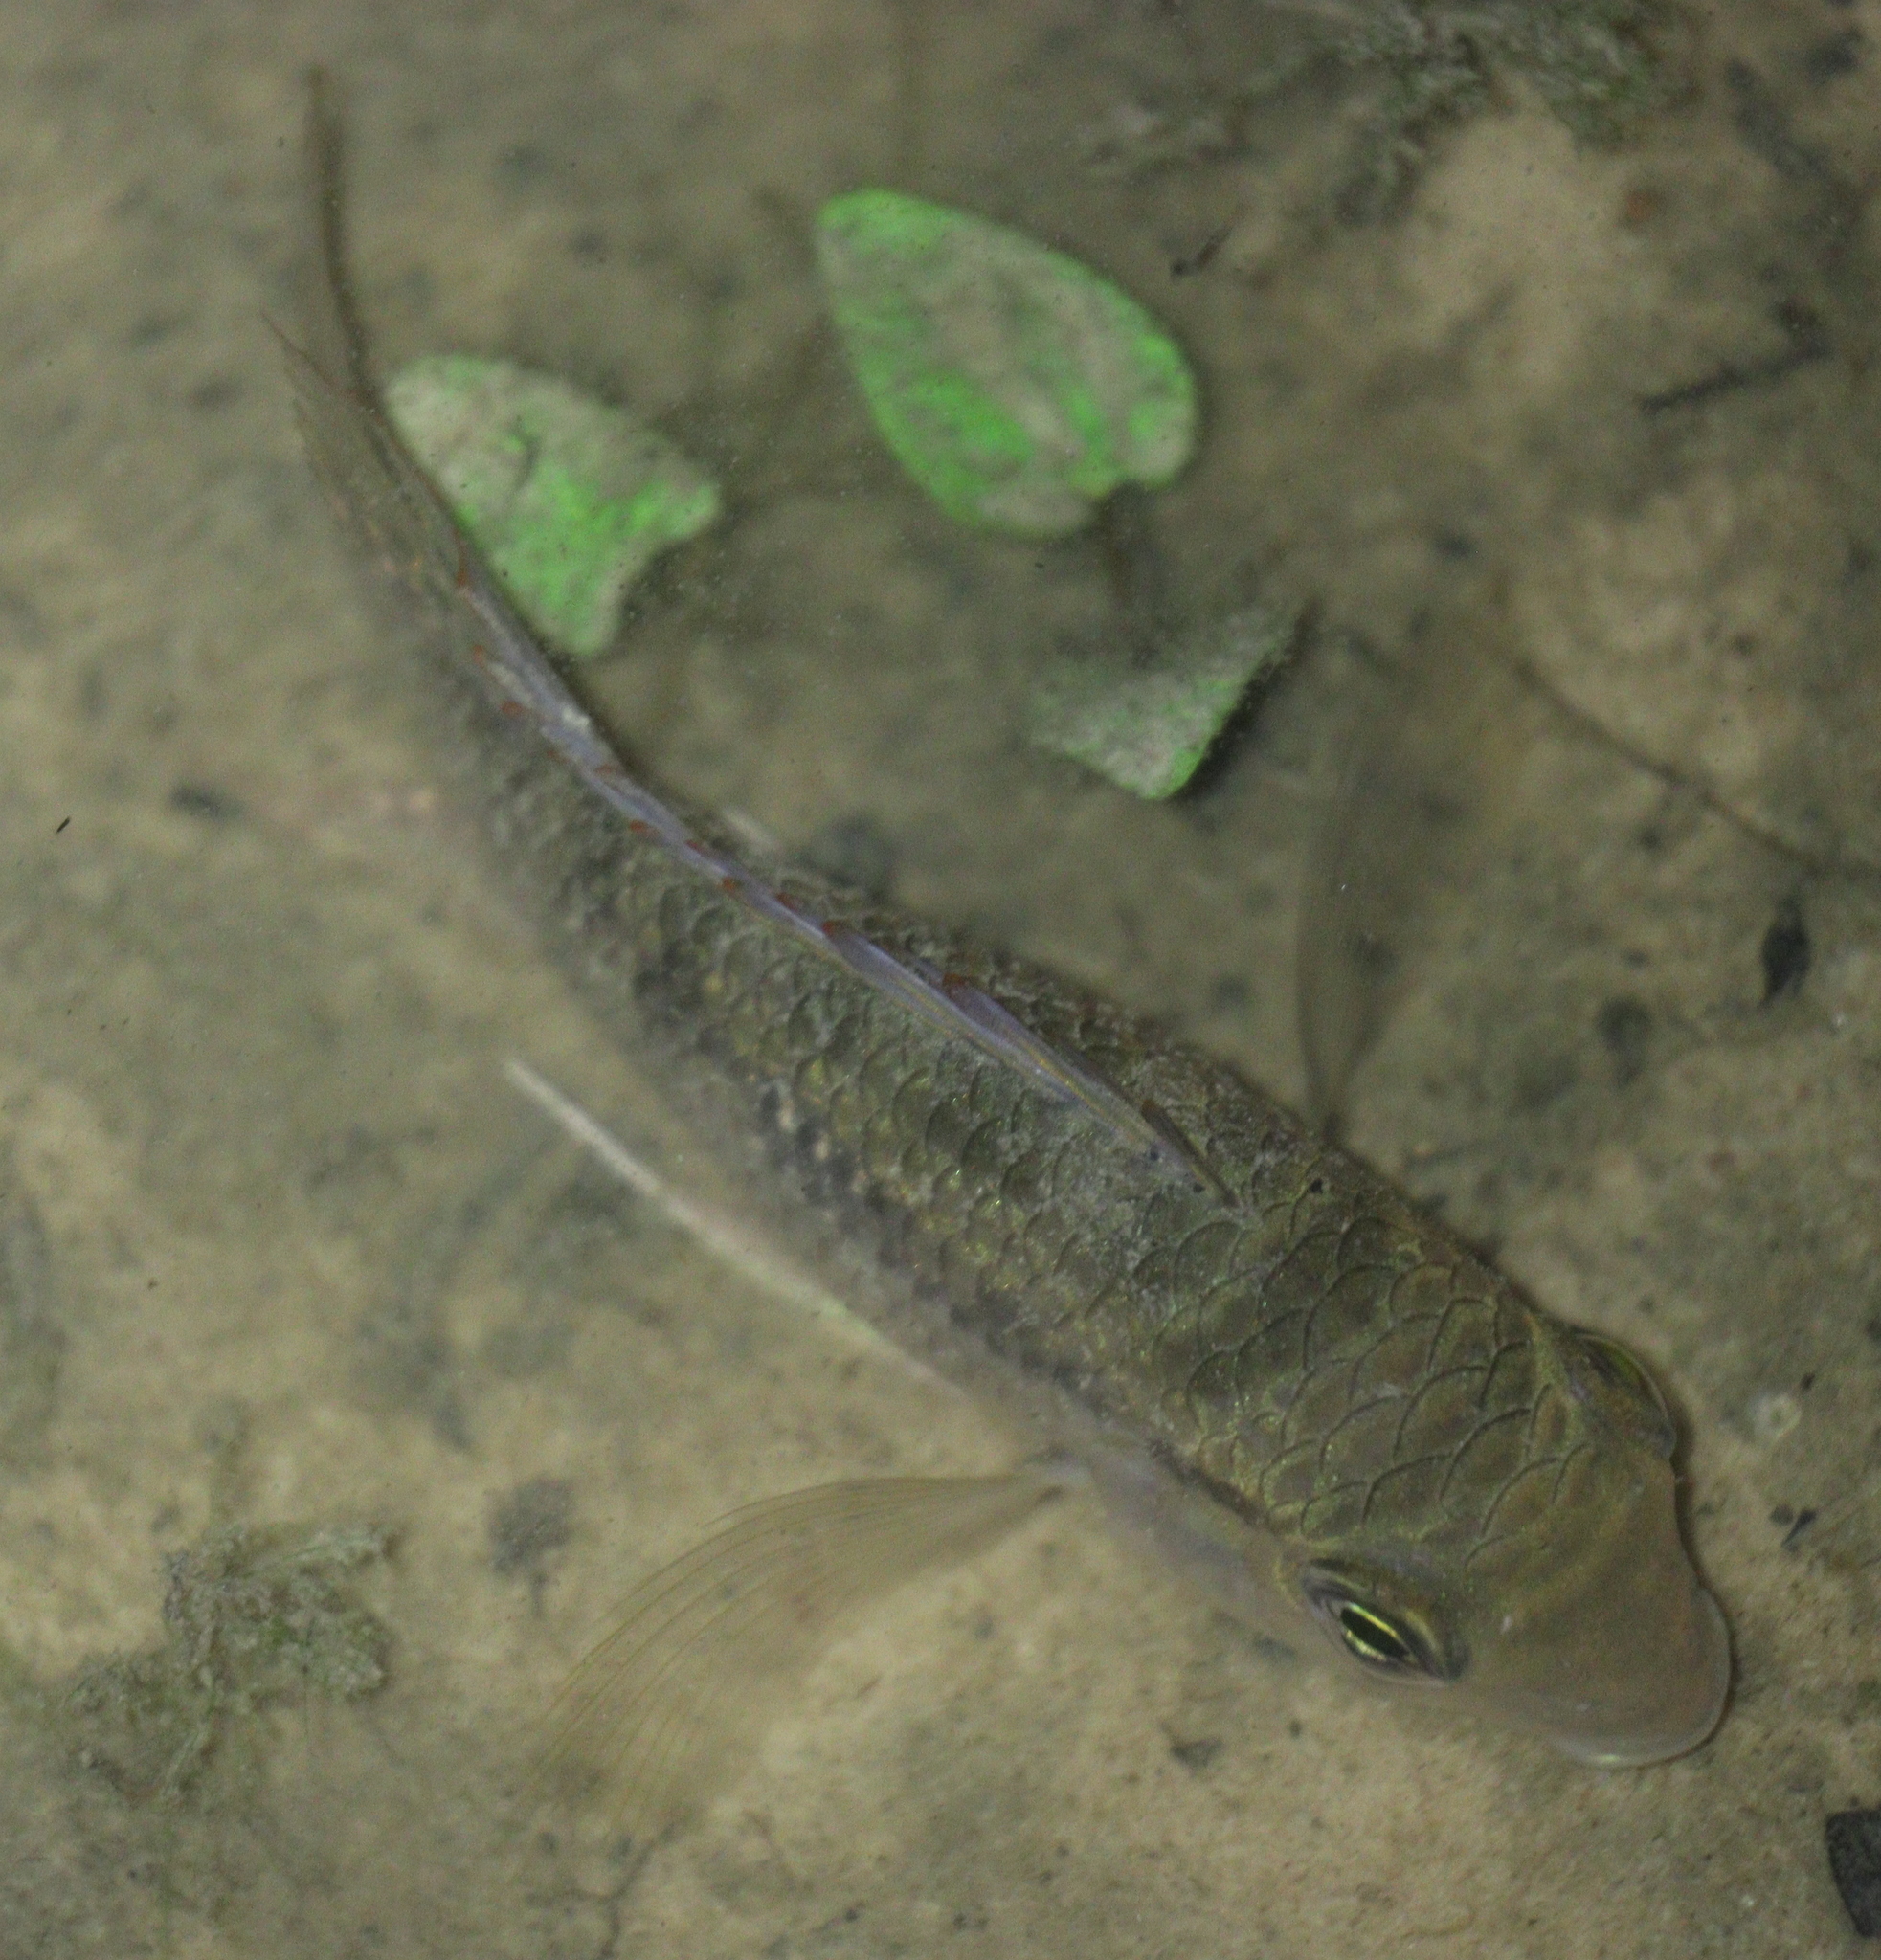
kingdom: Animalia
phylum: Chordata
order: Perciformes
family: Cichlidae
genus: Bujurquina
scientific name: Bujurquina vittata
